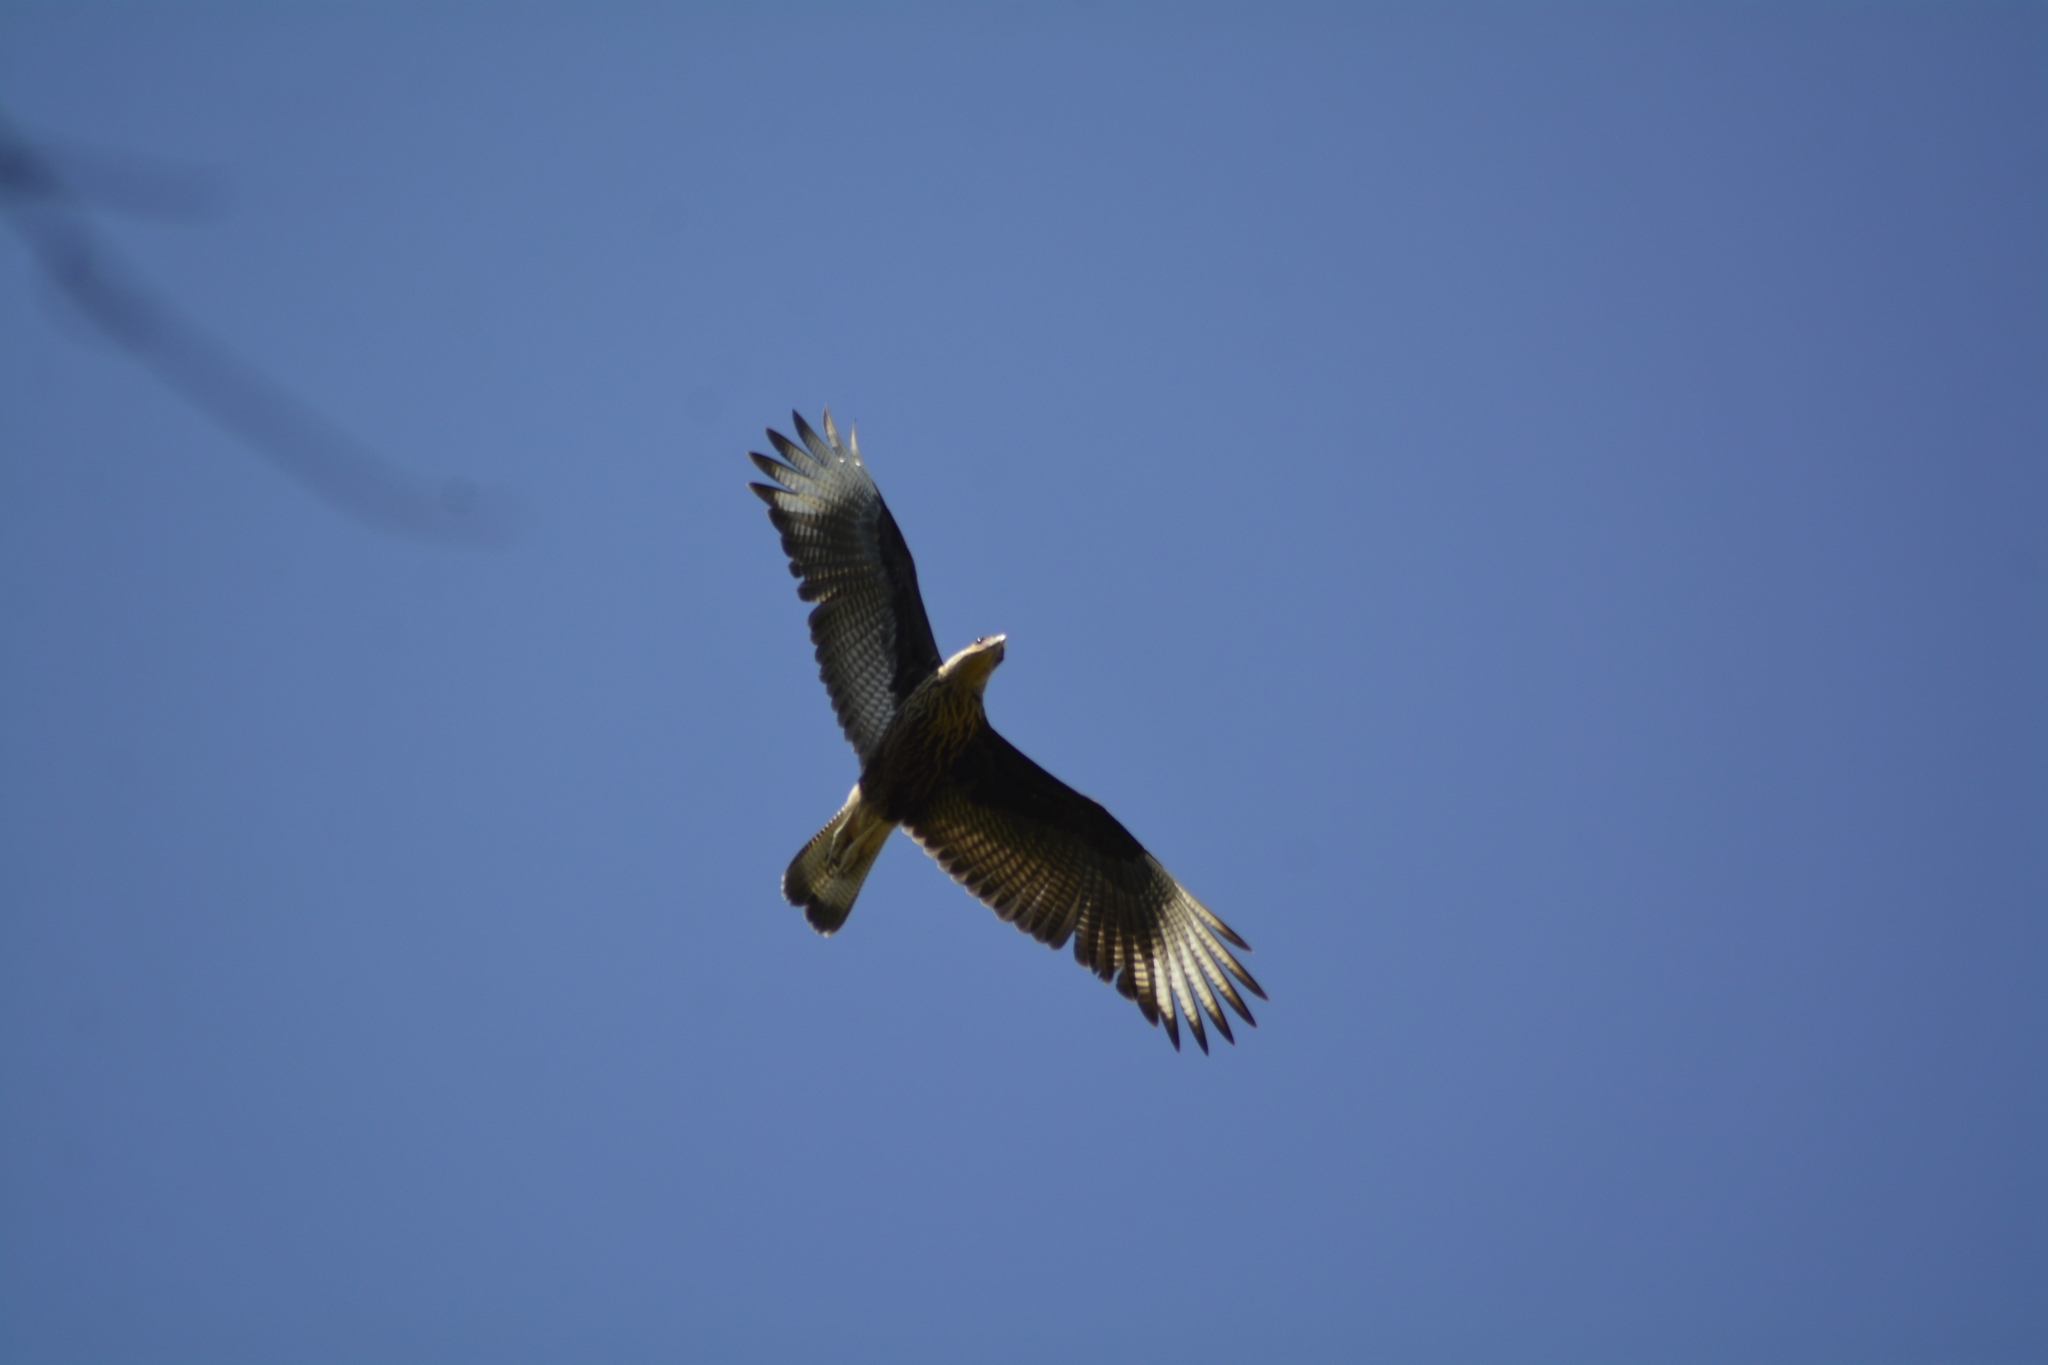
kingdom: Animalia
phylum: Chordata
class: Aves
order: Falconiformes
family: Falconidae
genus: Caracara
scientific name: Caracara plancus
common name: Southern caracara
